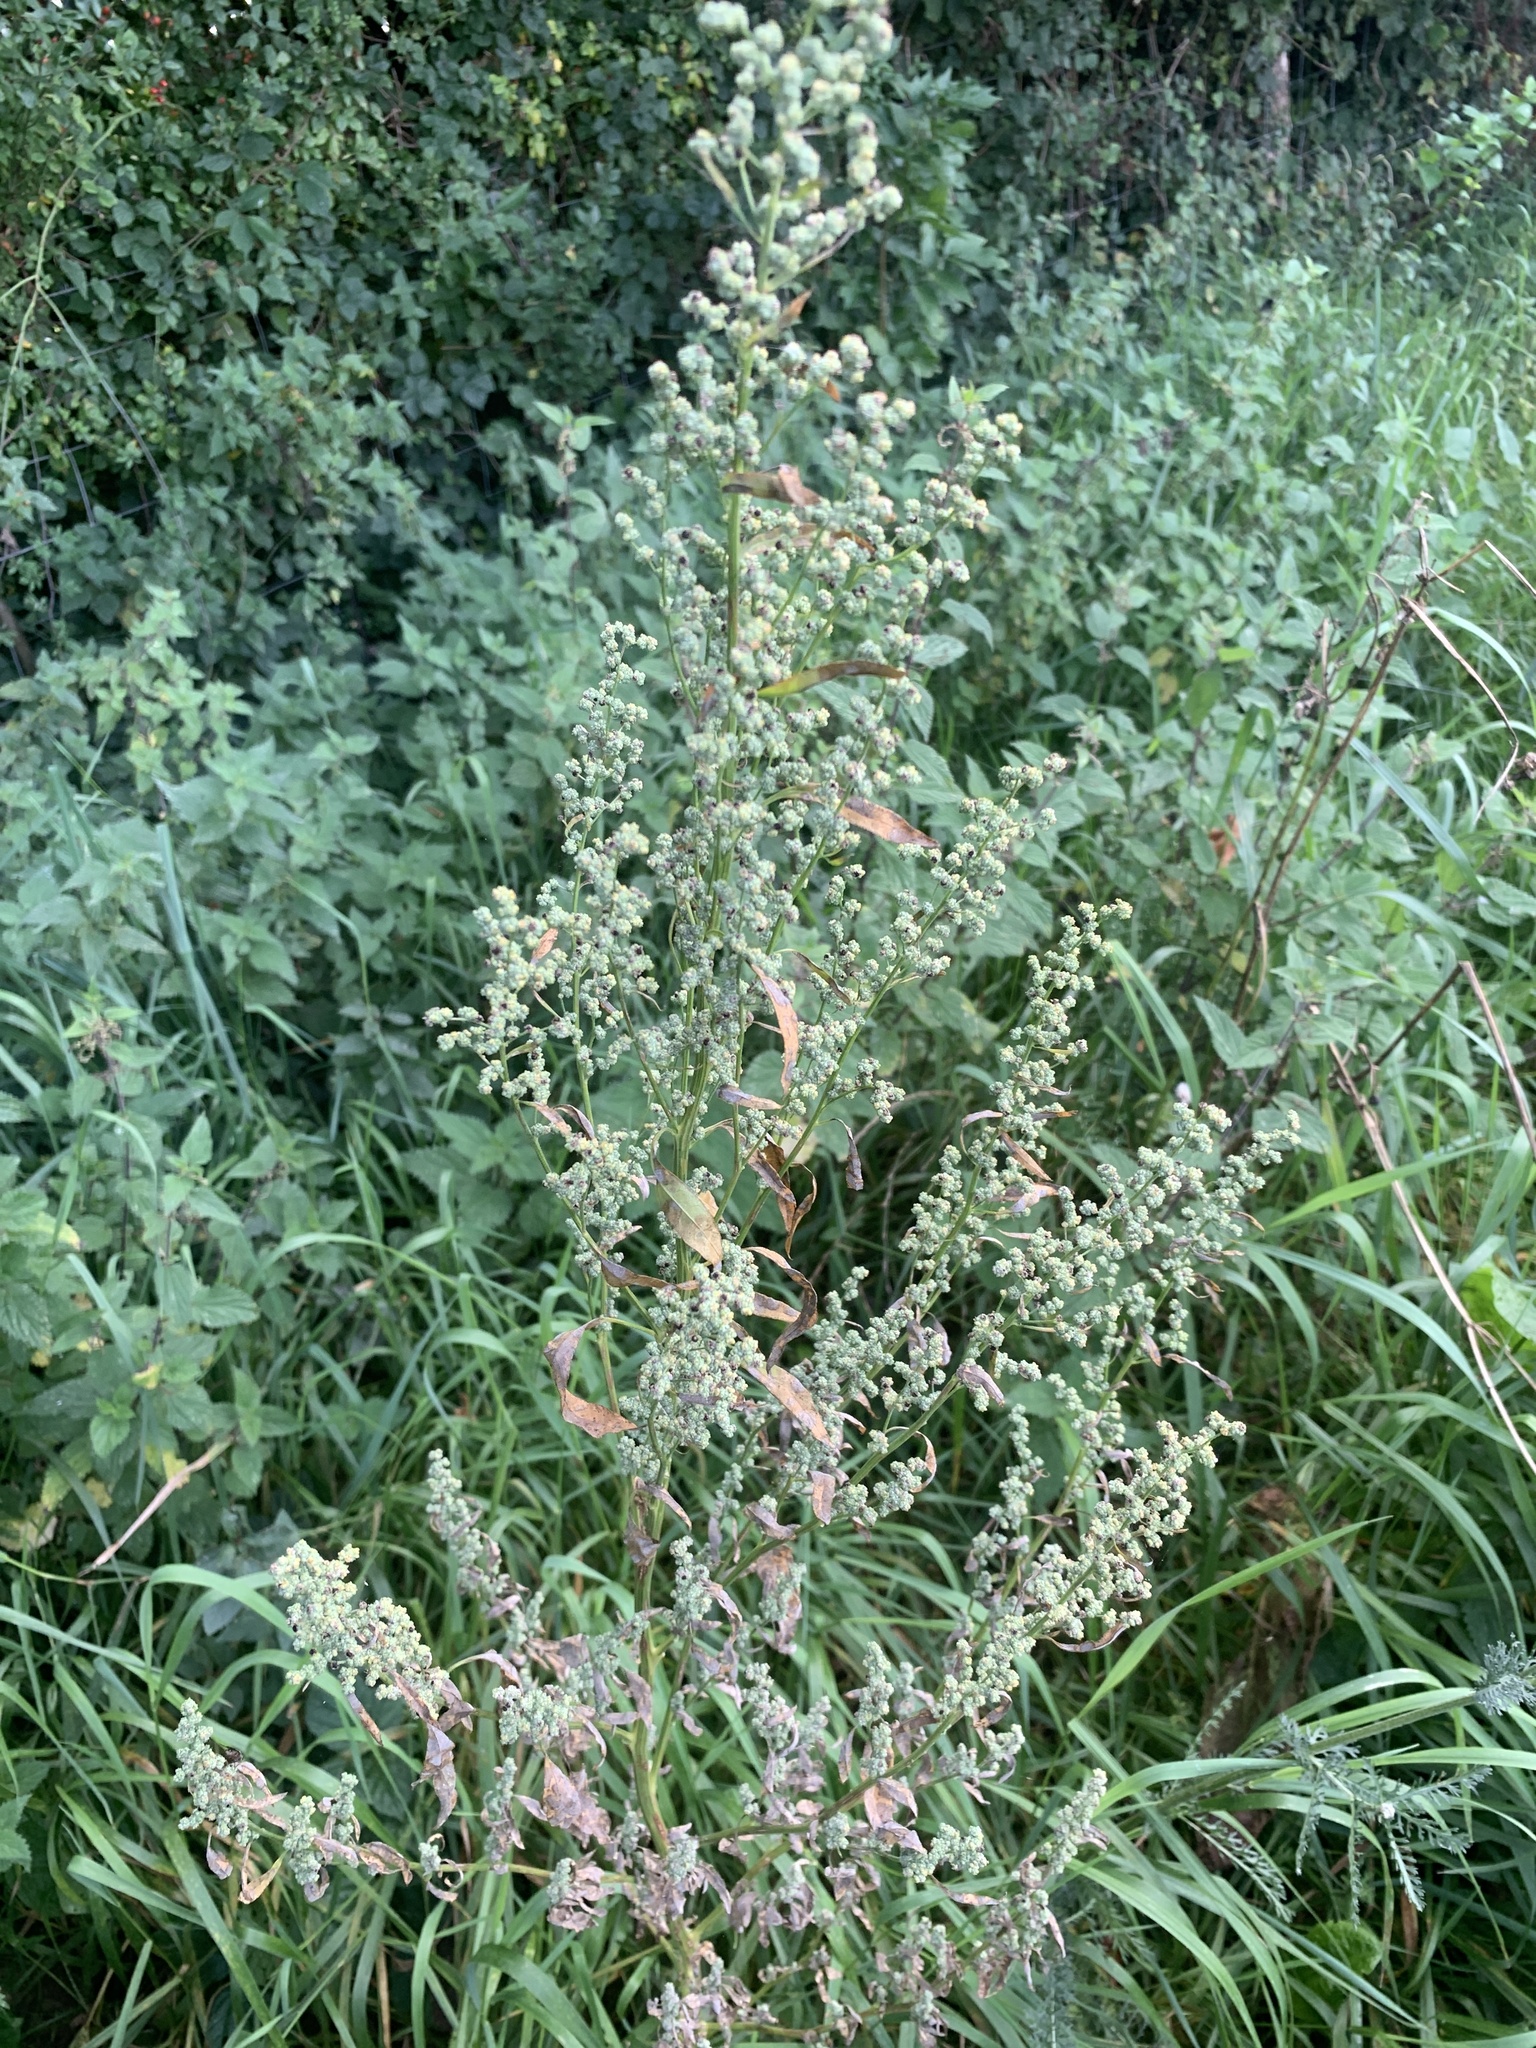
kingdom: Plantae
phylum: Tracheophyta
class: Magnoliopsida
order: Caryophyllales
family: Amaranthaceae
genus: Chenopodium
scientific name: Chenopodium album
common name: Fat-hen
